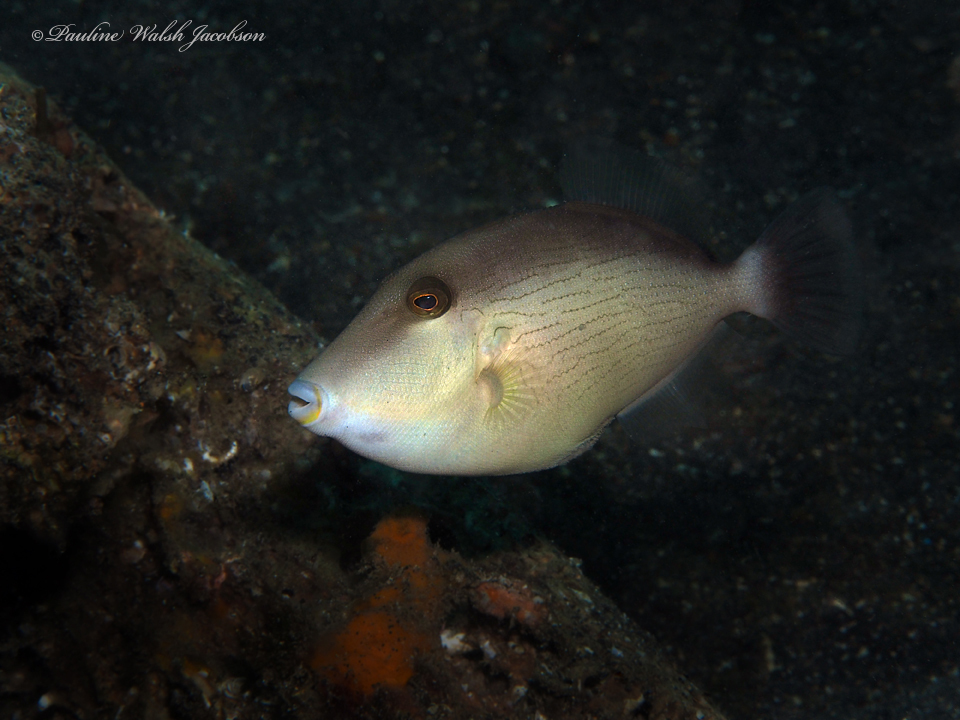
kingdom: Animalia
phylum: Chordata
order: Tetraodontiformes
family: Balistidae
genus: Sufflamen
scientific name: Sufflamen fraenatum
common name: Bridle triggerfish
